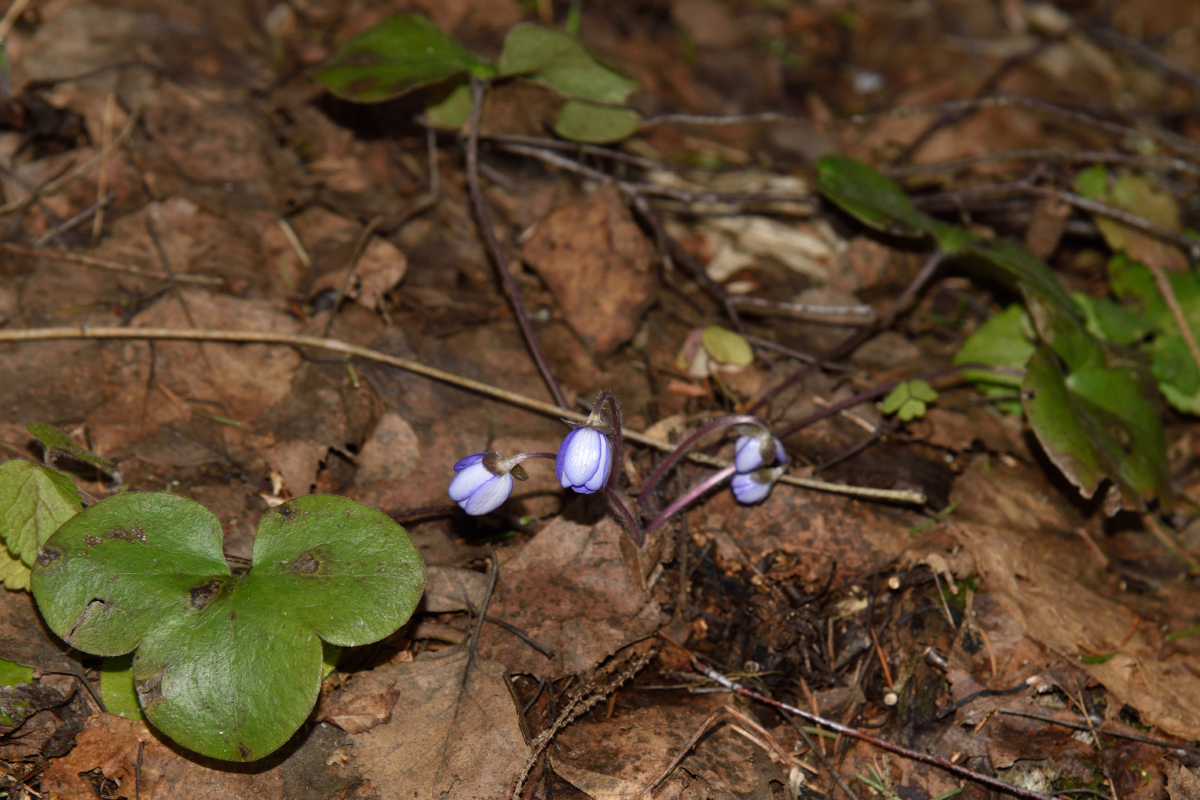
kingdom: Plantae
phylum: Tracheophyta
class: Magnoliopsida
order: Ranunculales
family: Ranunculaceae
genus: Hepatica
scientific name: Hepatica nobilis
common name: Liverleaf
